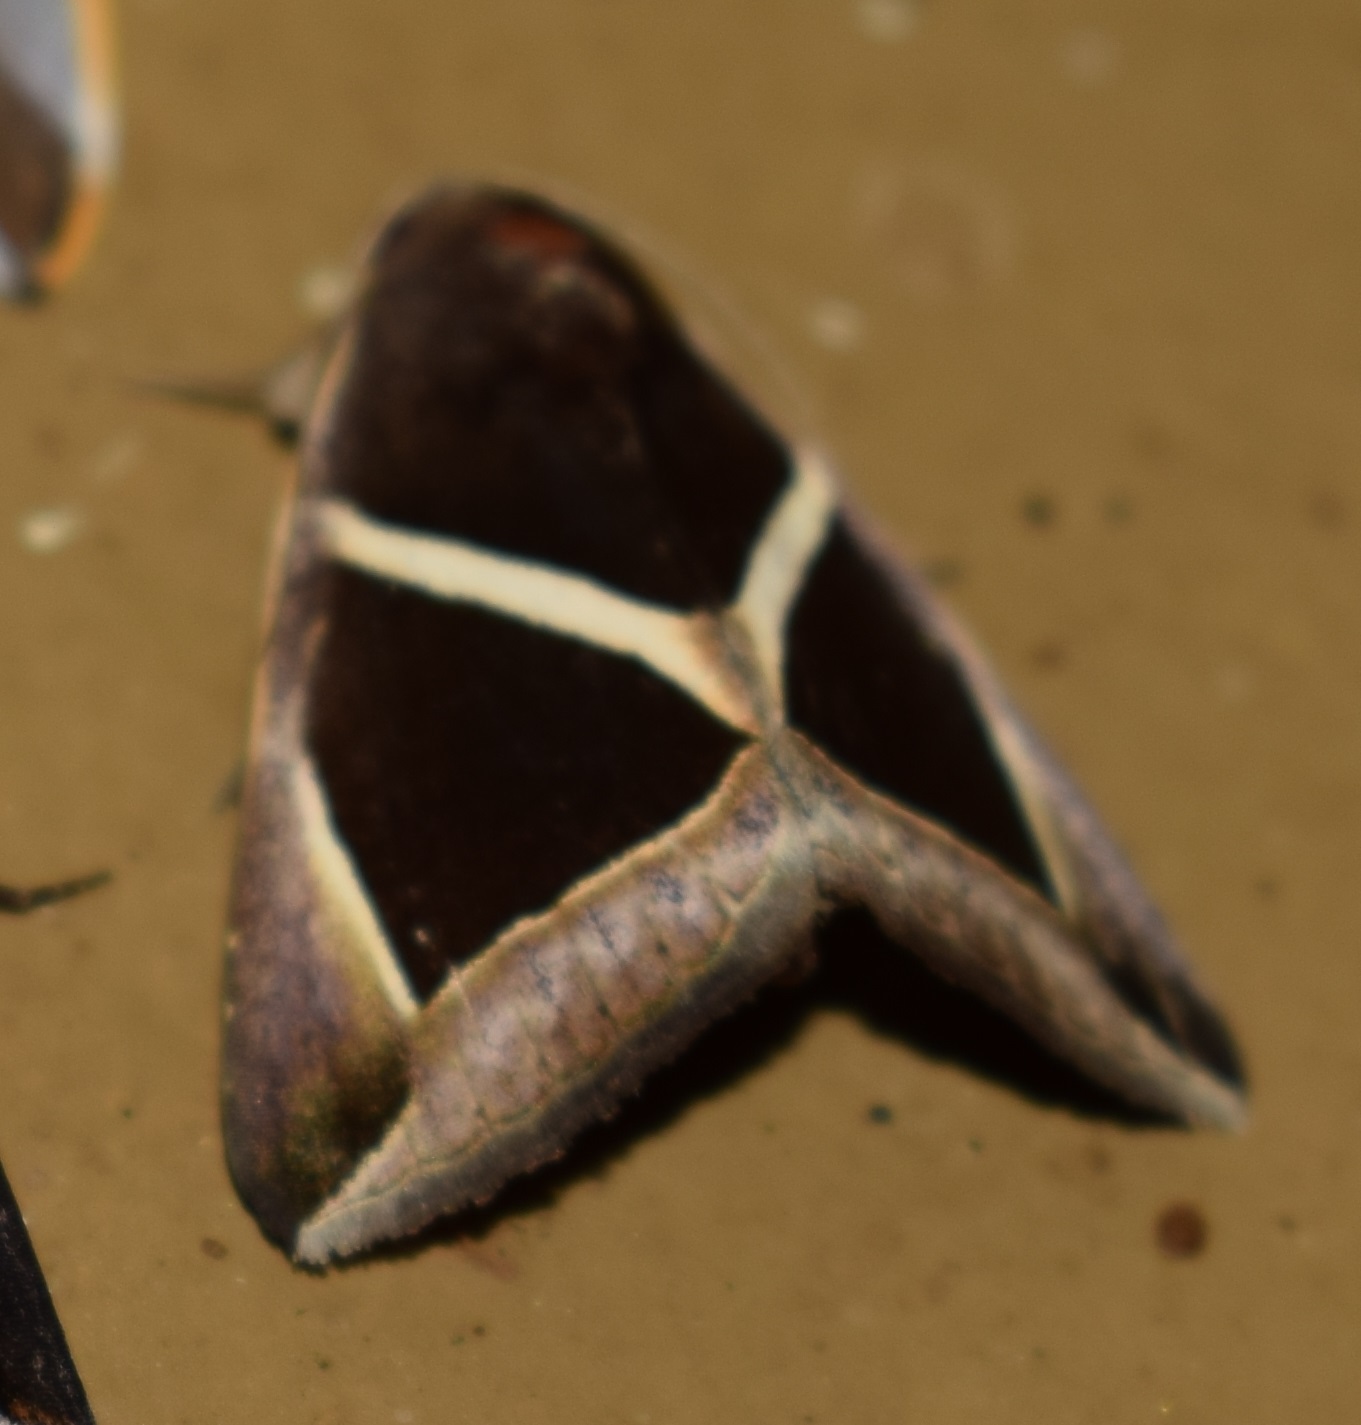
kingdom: Animalia
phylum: Arthropoda
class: Insecta
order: Lepidoptera
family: Erebidae
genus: Chalciope
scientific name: Chalciope mygdon
